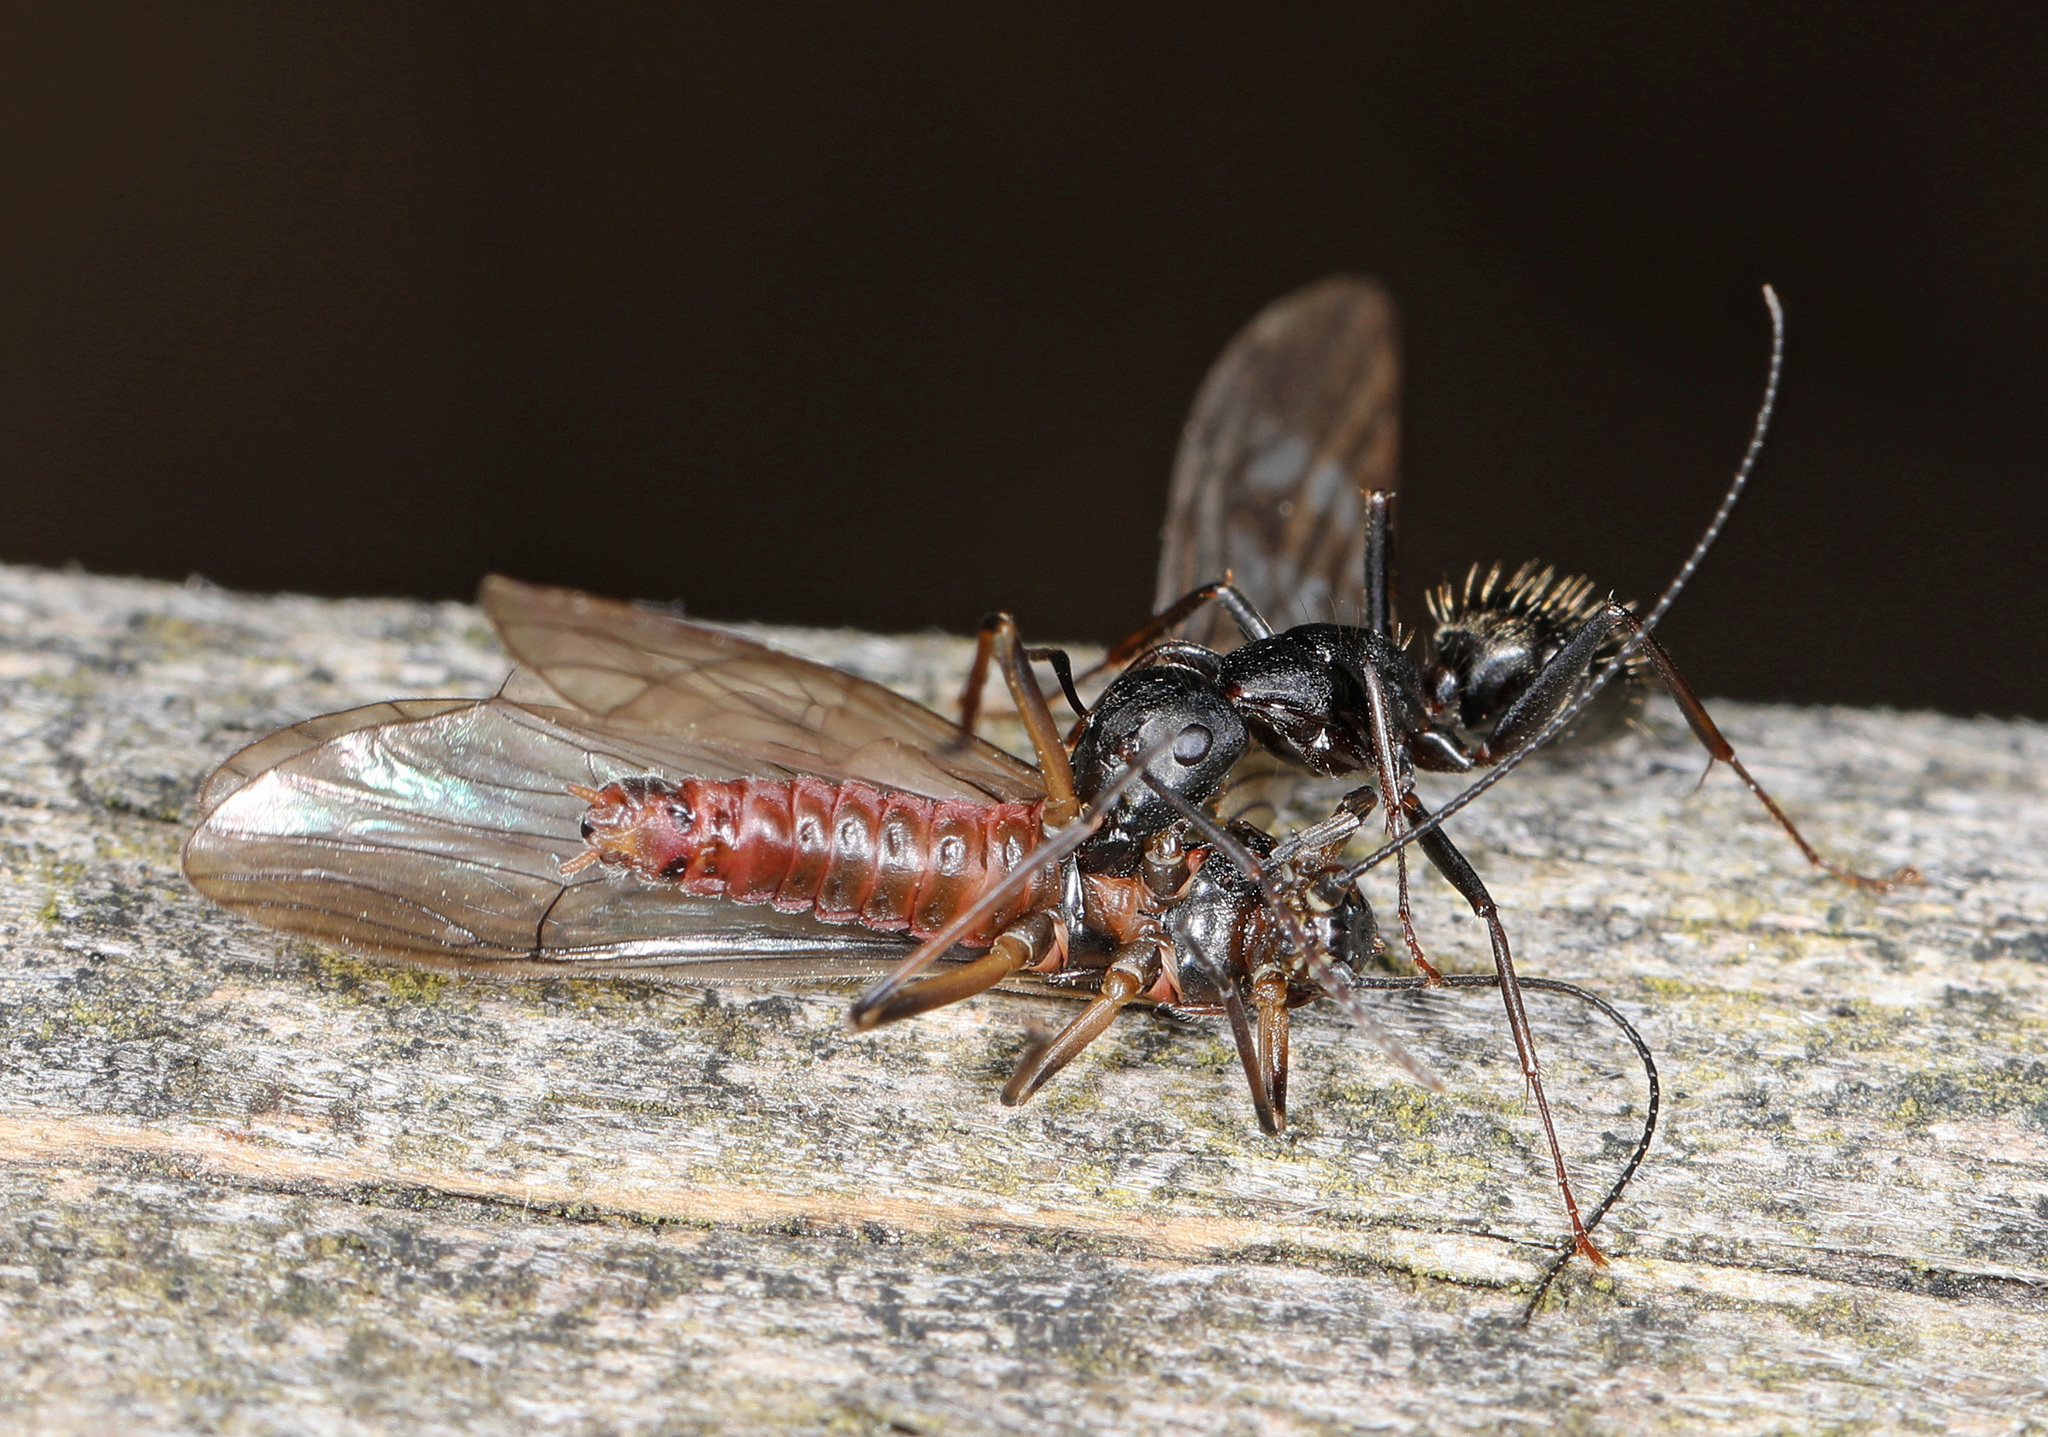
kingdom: Animalia
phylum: Arthropoda
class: Insecta
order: Hymenoptera
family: Formicidae
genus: Camponotus
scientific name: Camponotus pennsylvanicus
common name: Black carpenter ant
